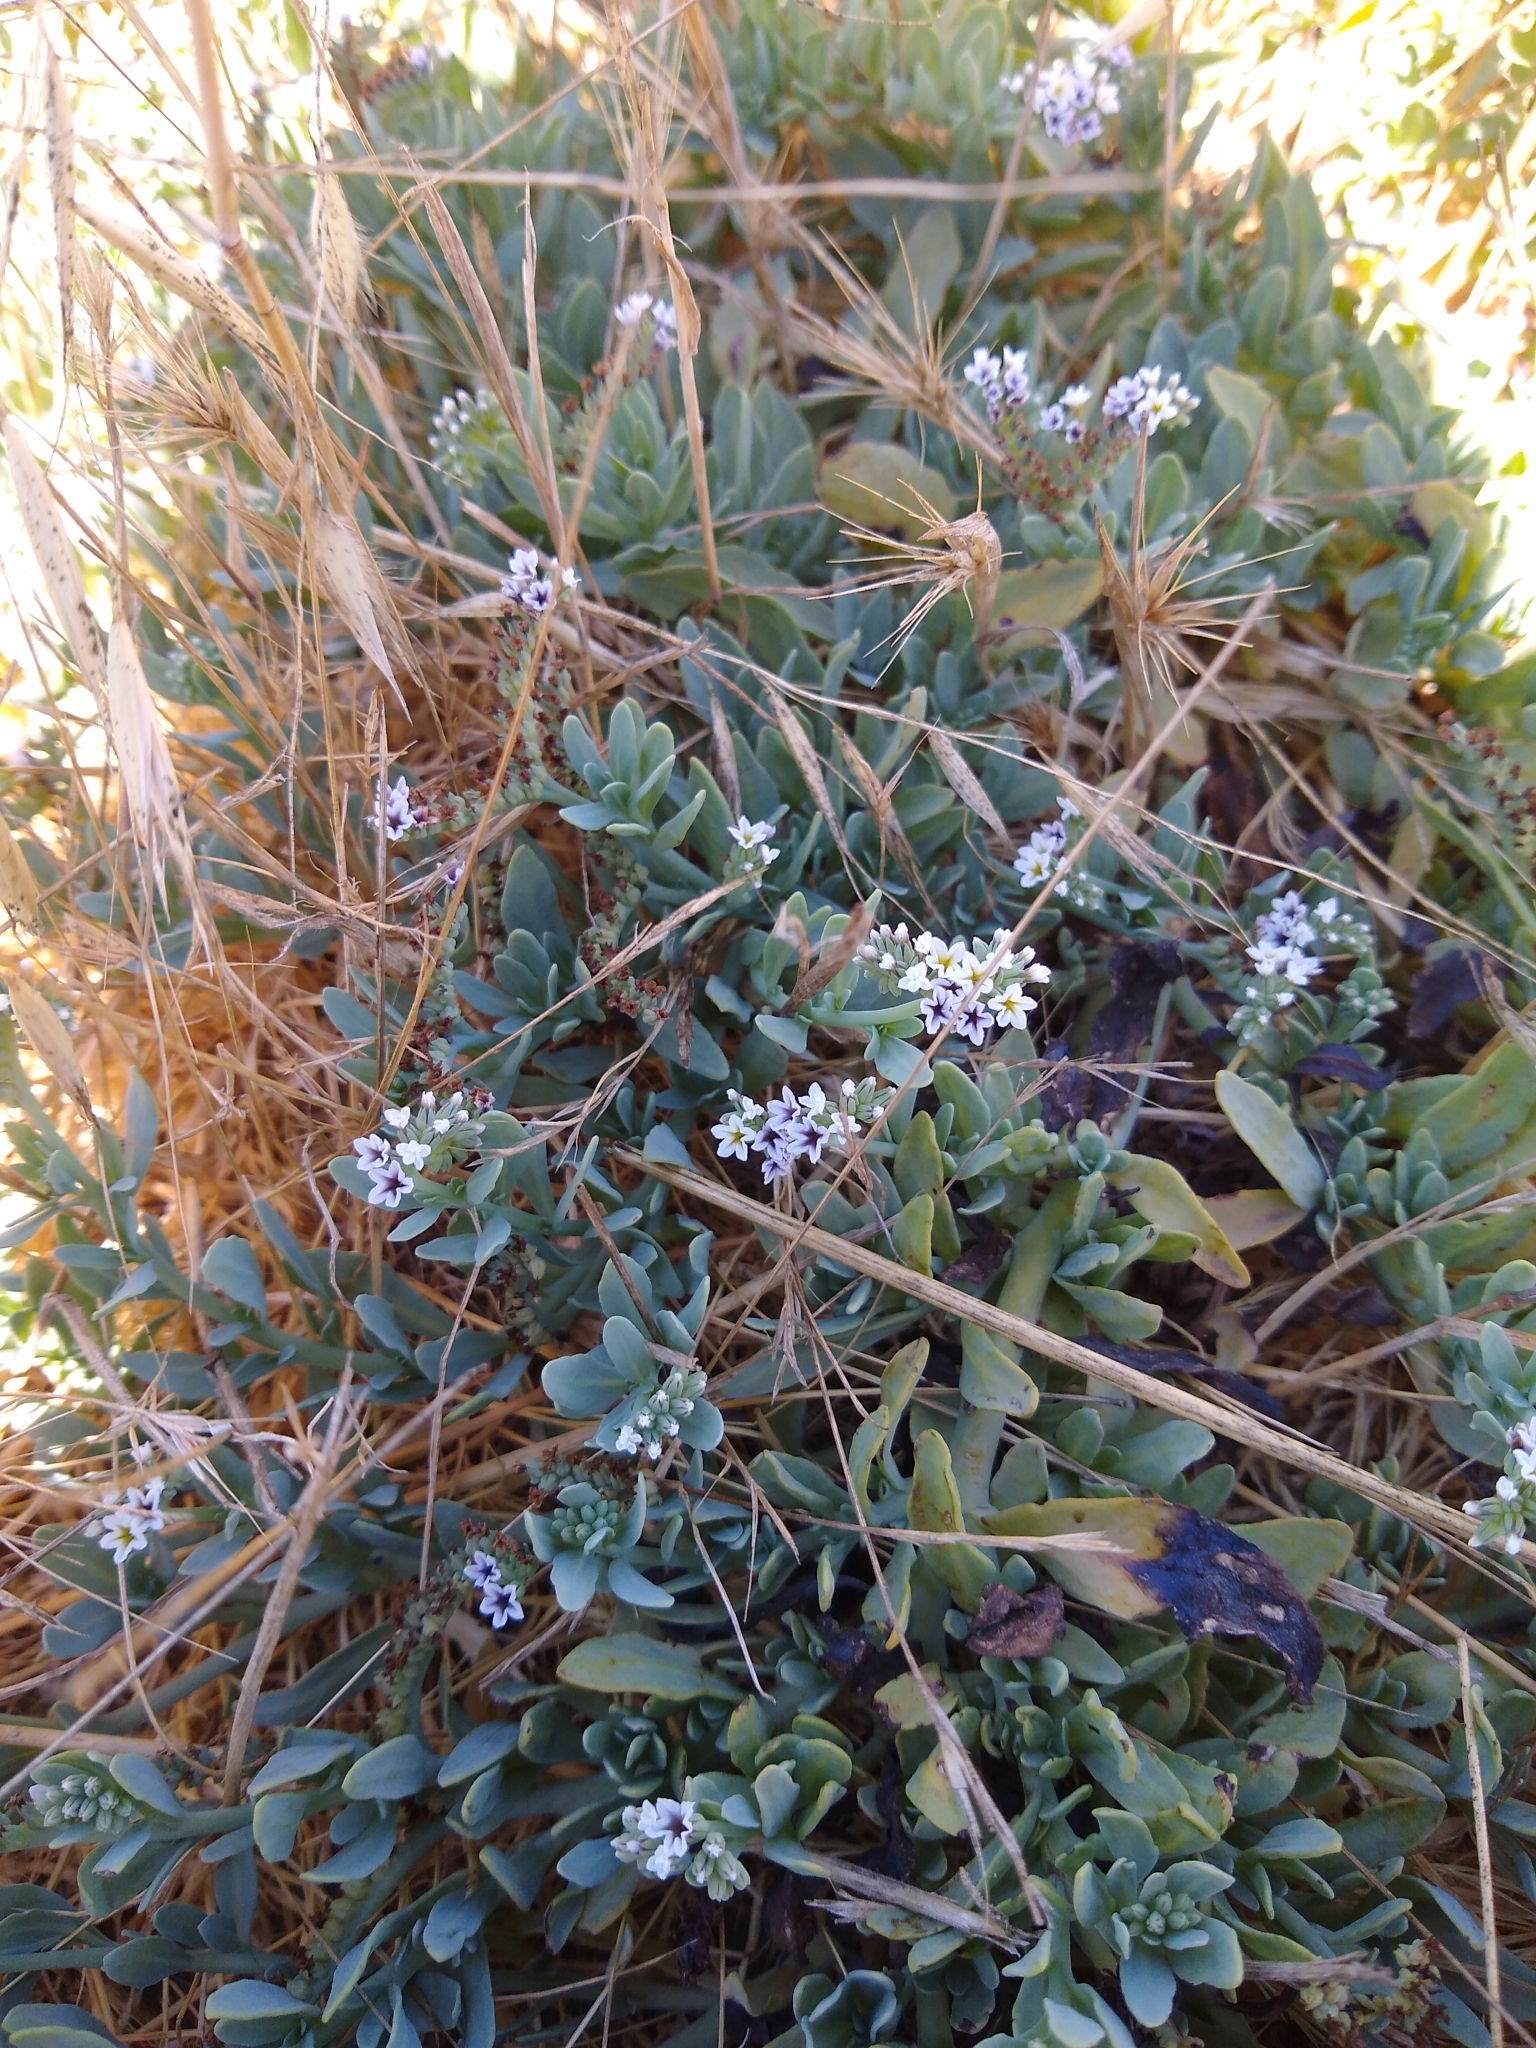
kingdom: Plantae
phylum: Tracheophyta
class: Magnoliopsida
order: Boraginales
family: Heliotropiaceae
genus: Heliotropium
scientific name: Heliotropium curassavicum
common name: Seaside heliotrope
